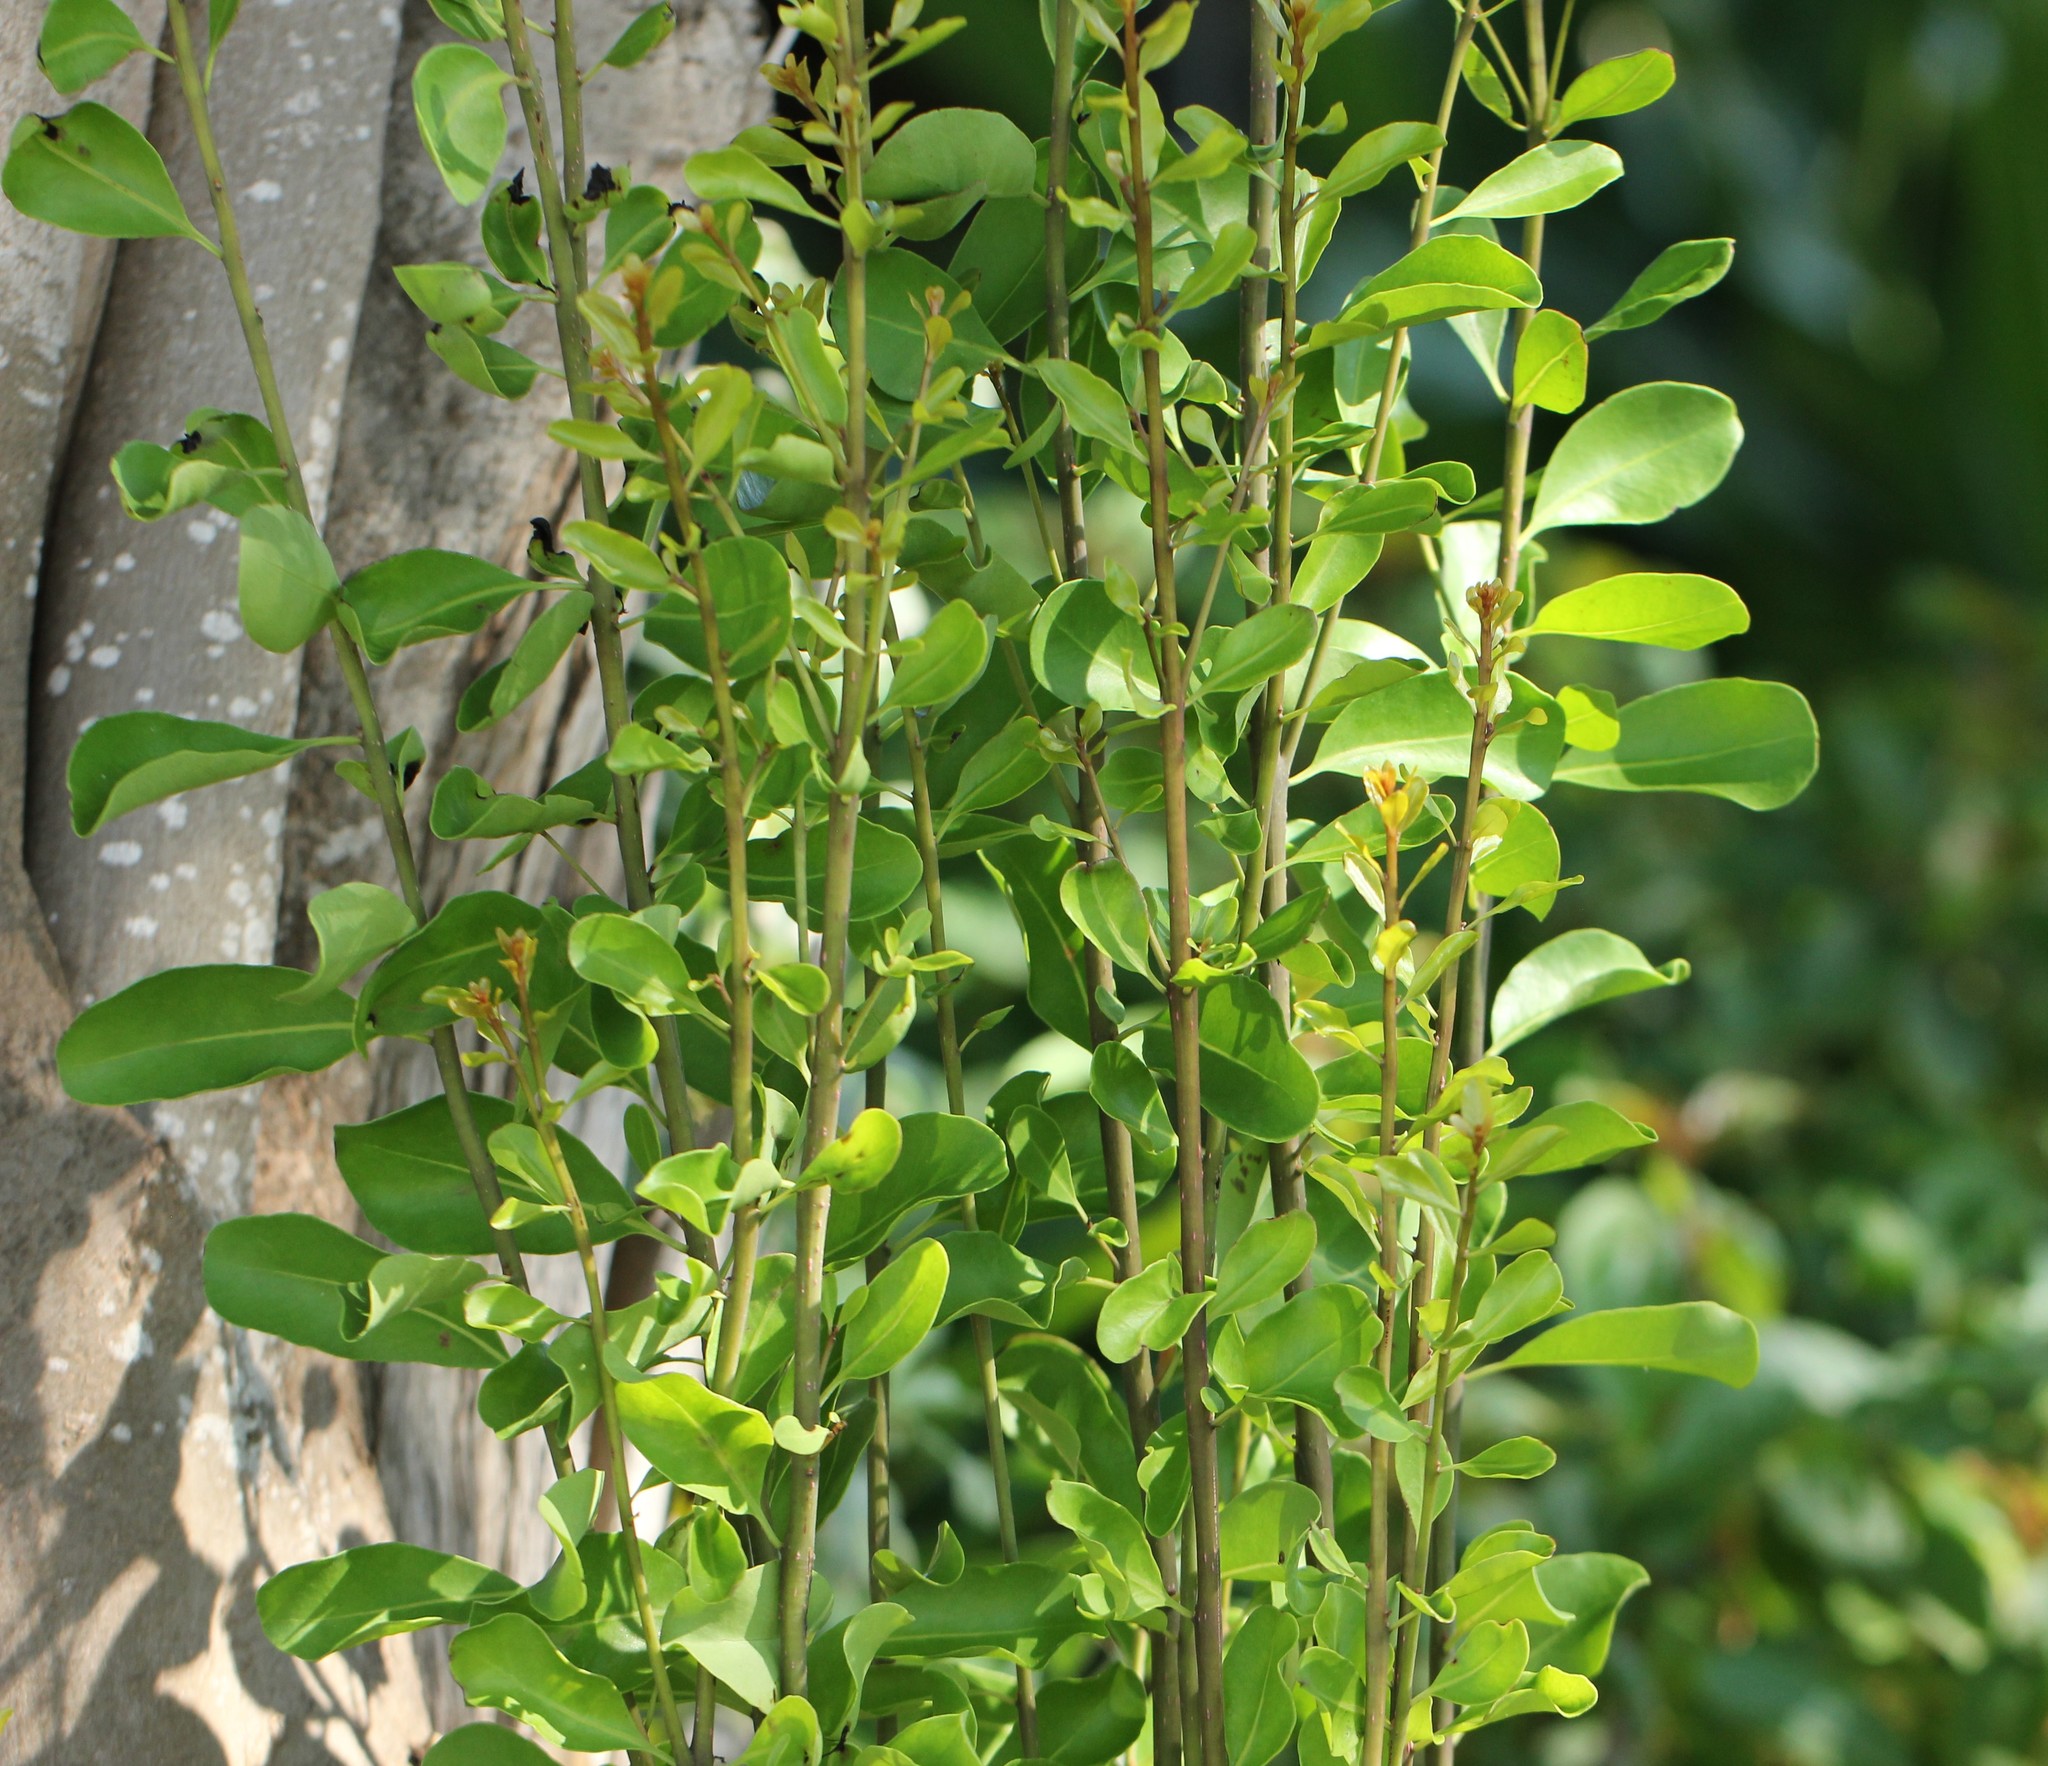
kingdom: Plantae
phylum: Tracheophyta
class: Magnoliopsida
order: Caryophyllales
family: Nyctaginaceae
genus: Guapira
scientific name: Guapira discolor
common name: Beeftree
